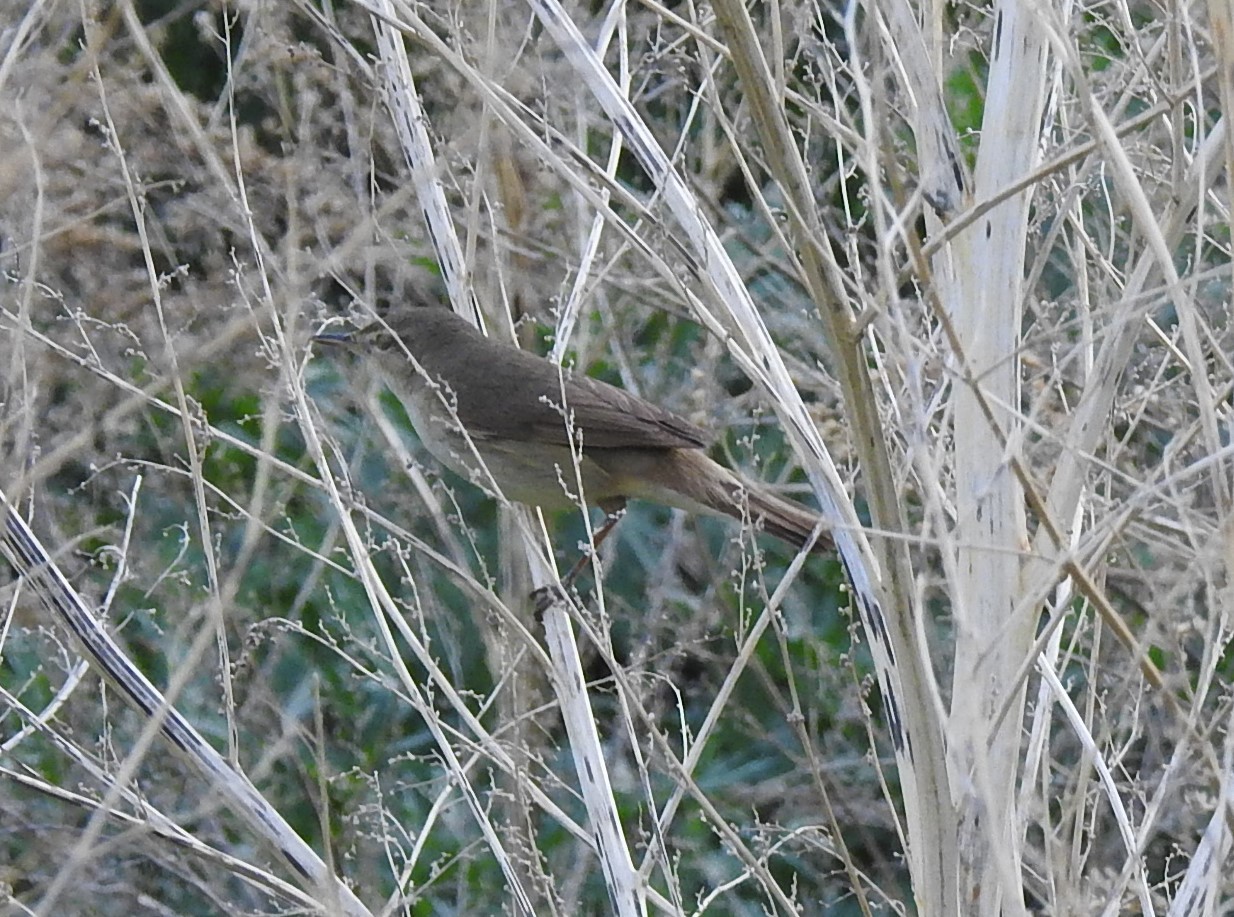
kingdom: Animalia
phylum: Chordata
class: Aves
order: Passeriformes
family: Acrocephalidae
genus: Acrocephalus
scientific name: Acrocephalus dumetorum
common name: Blyth's reed warbler
